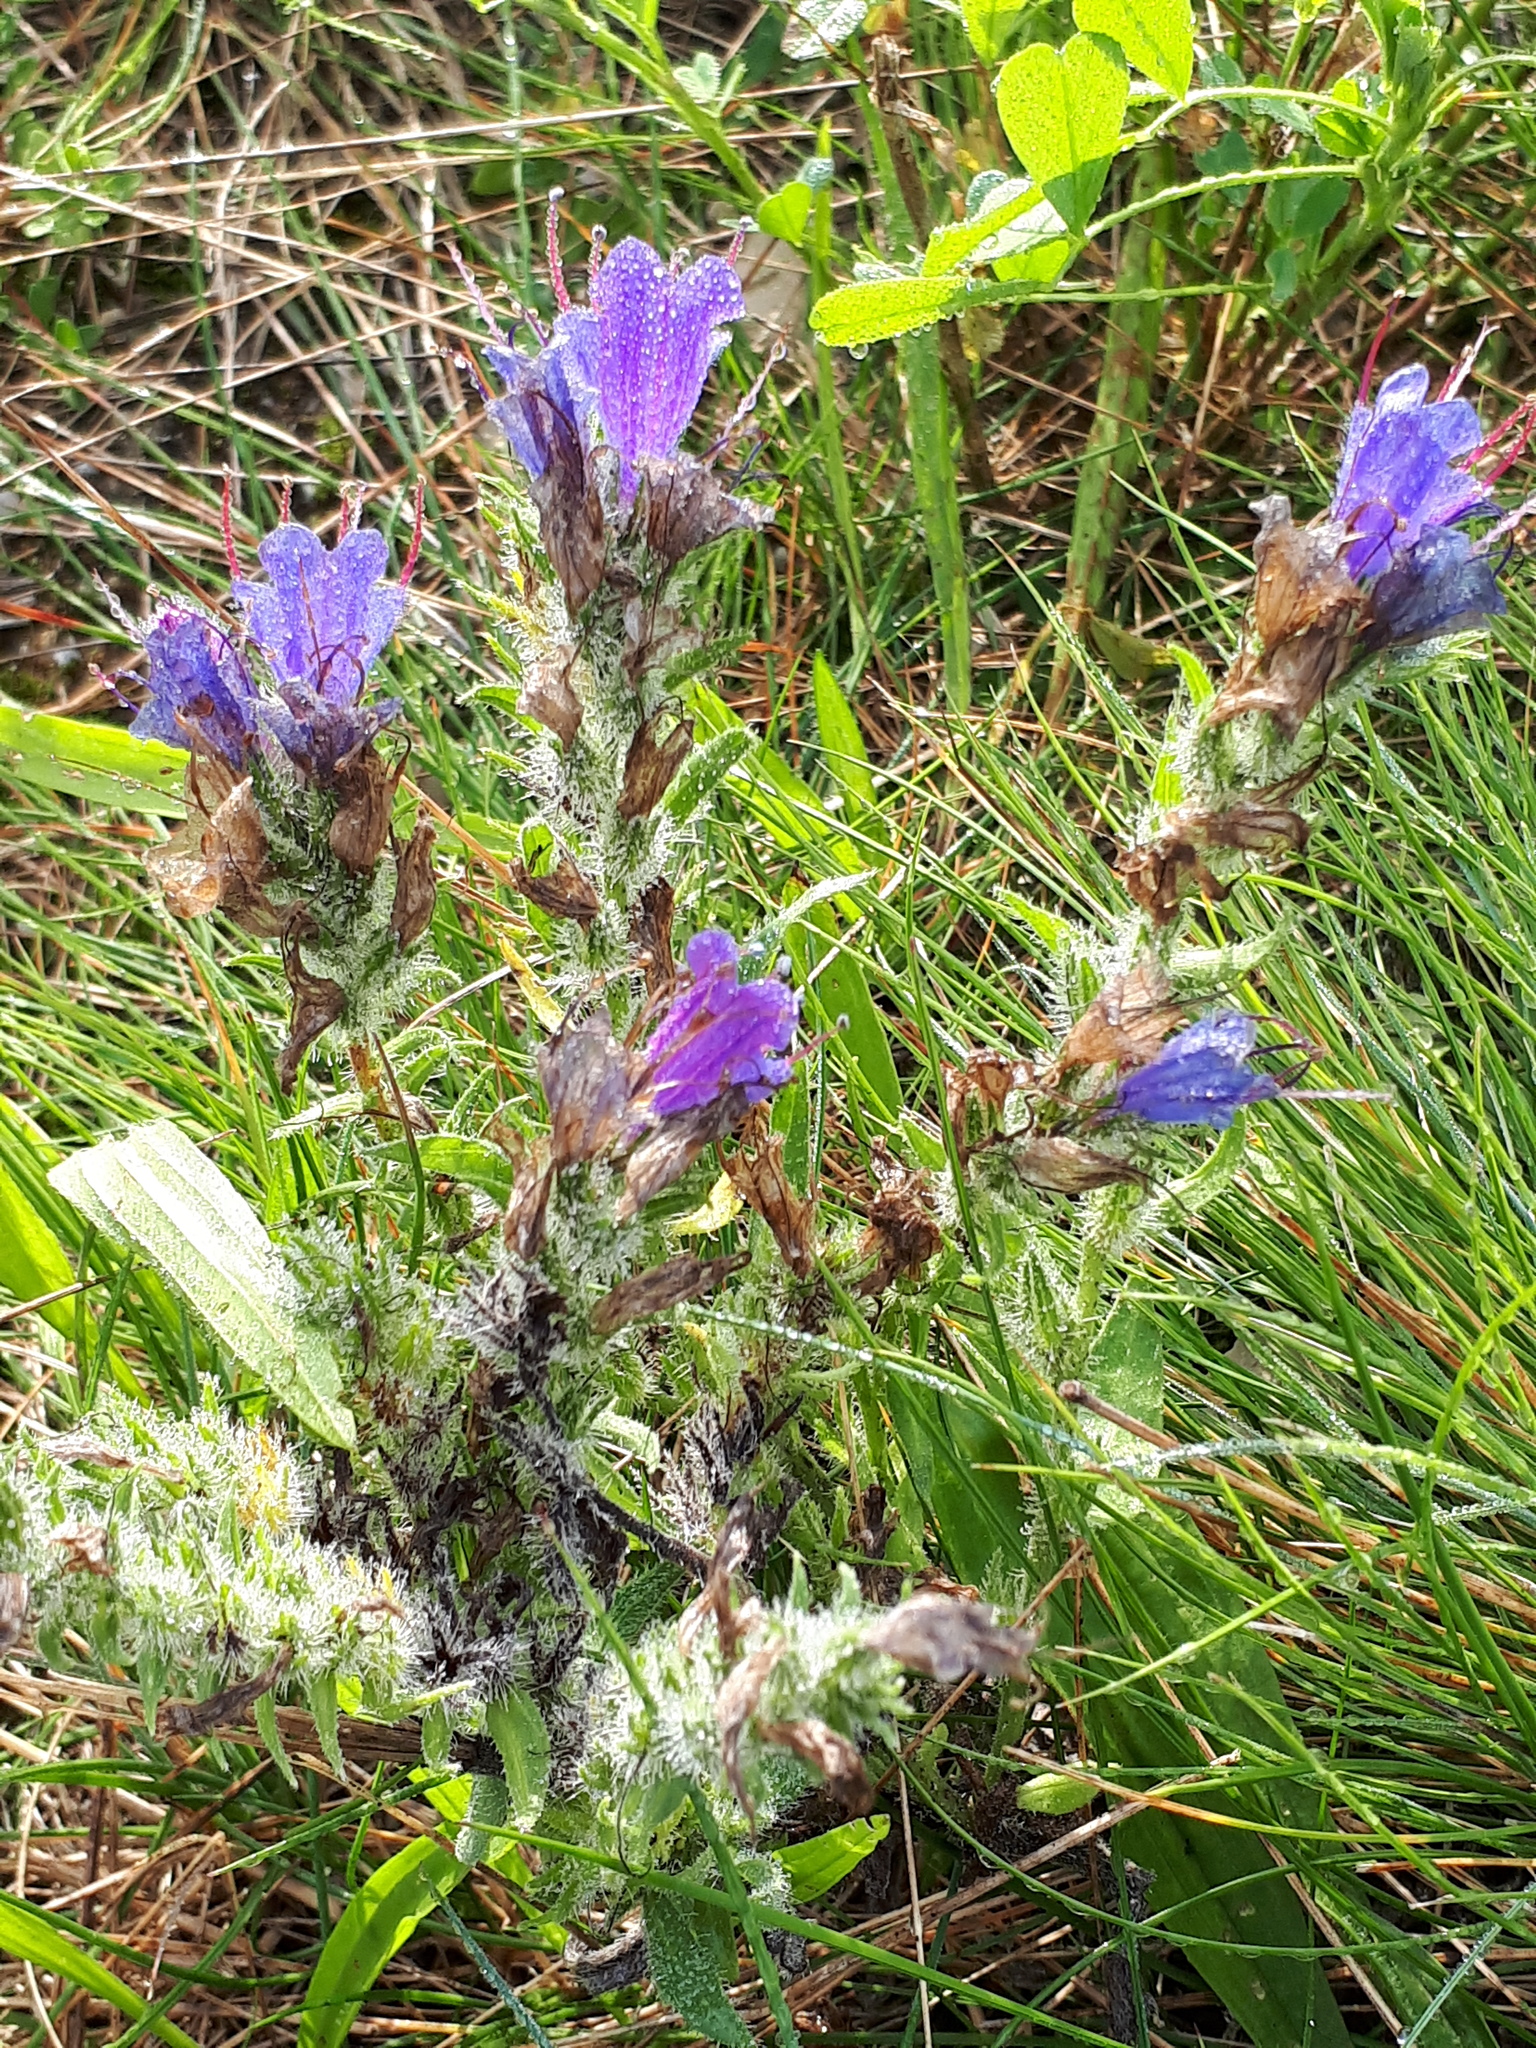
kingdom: Plantae
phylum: Tracheophyta
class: Magnoliopsida
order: Boraginales
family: Boraginaceae
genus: Echium
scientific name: Echium vulgare
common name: Common viper's bugloss
